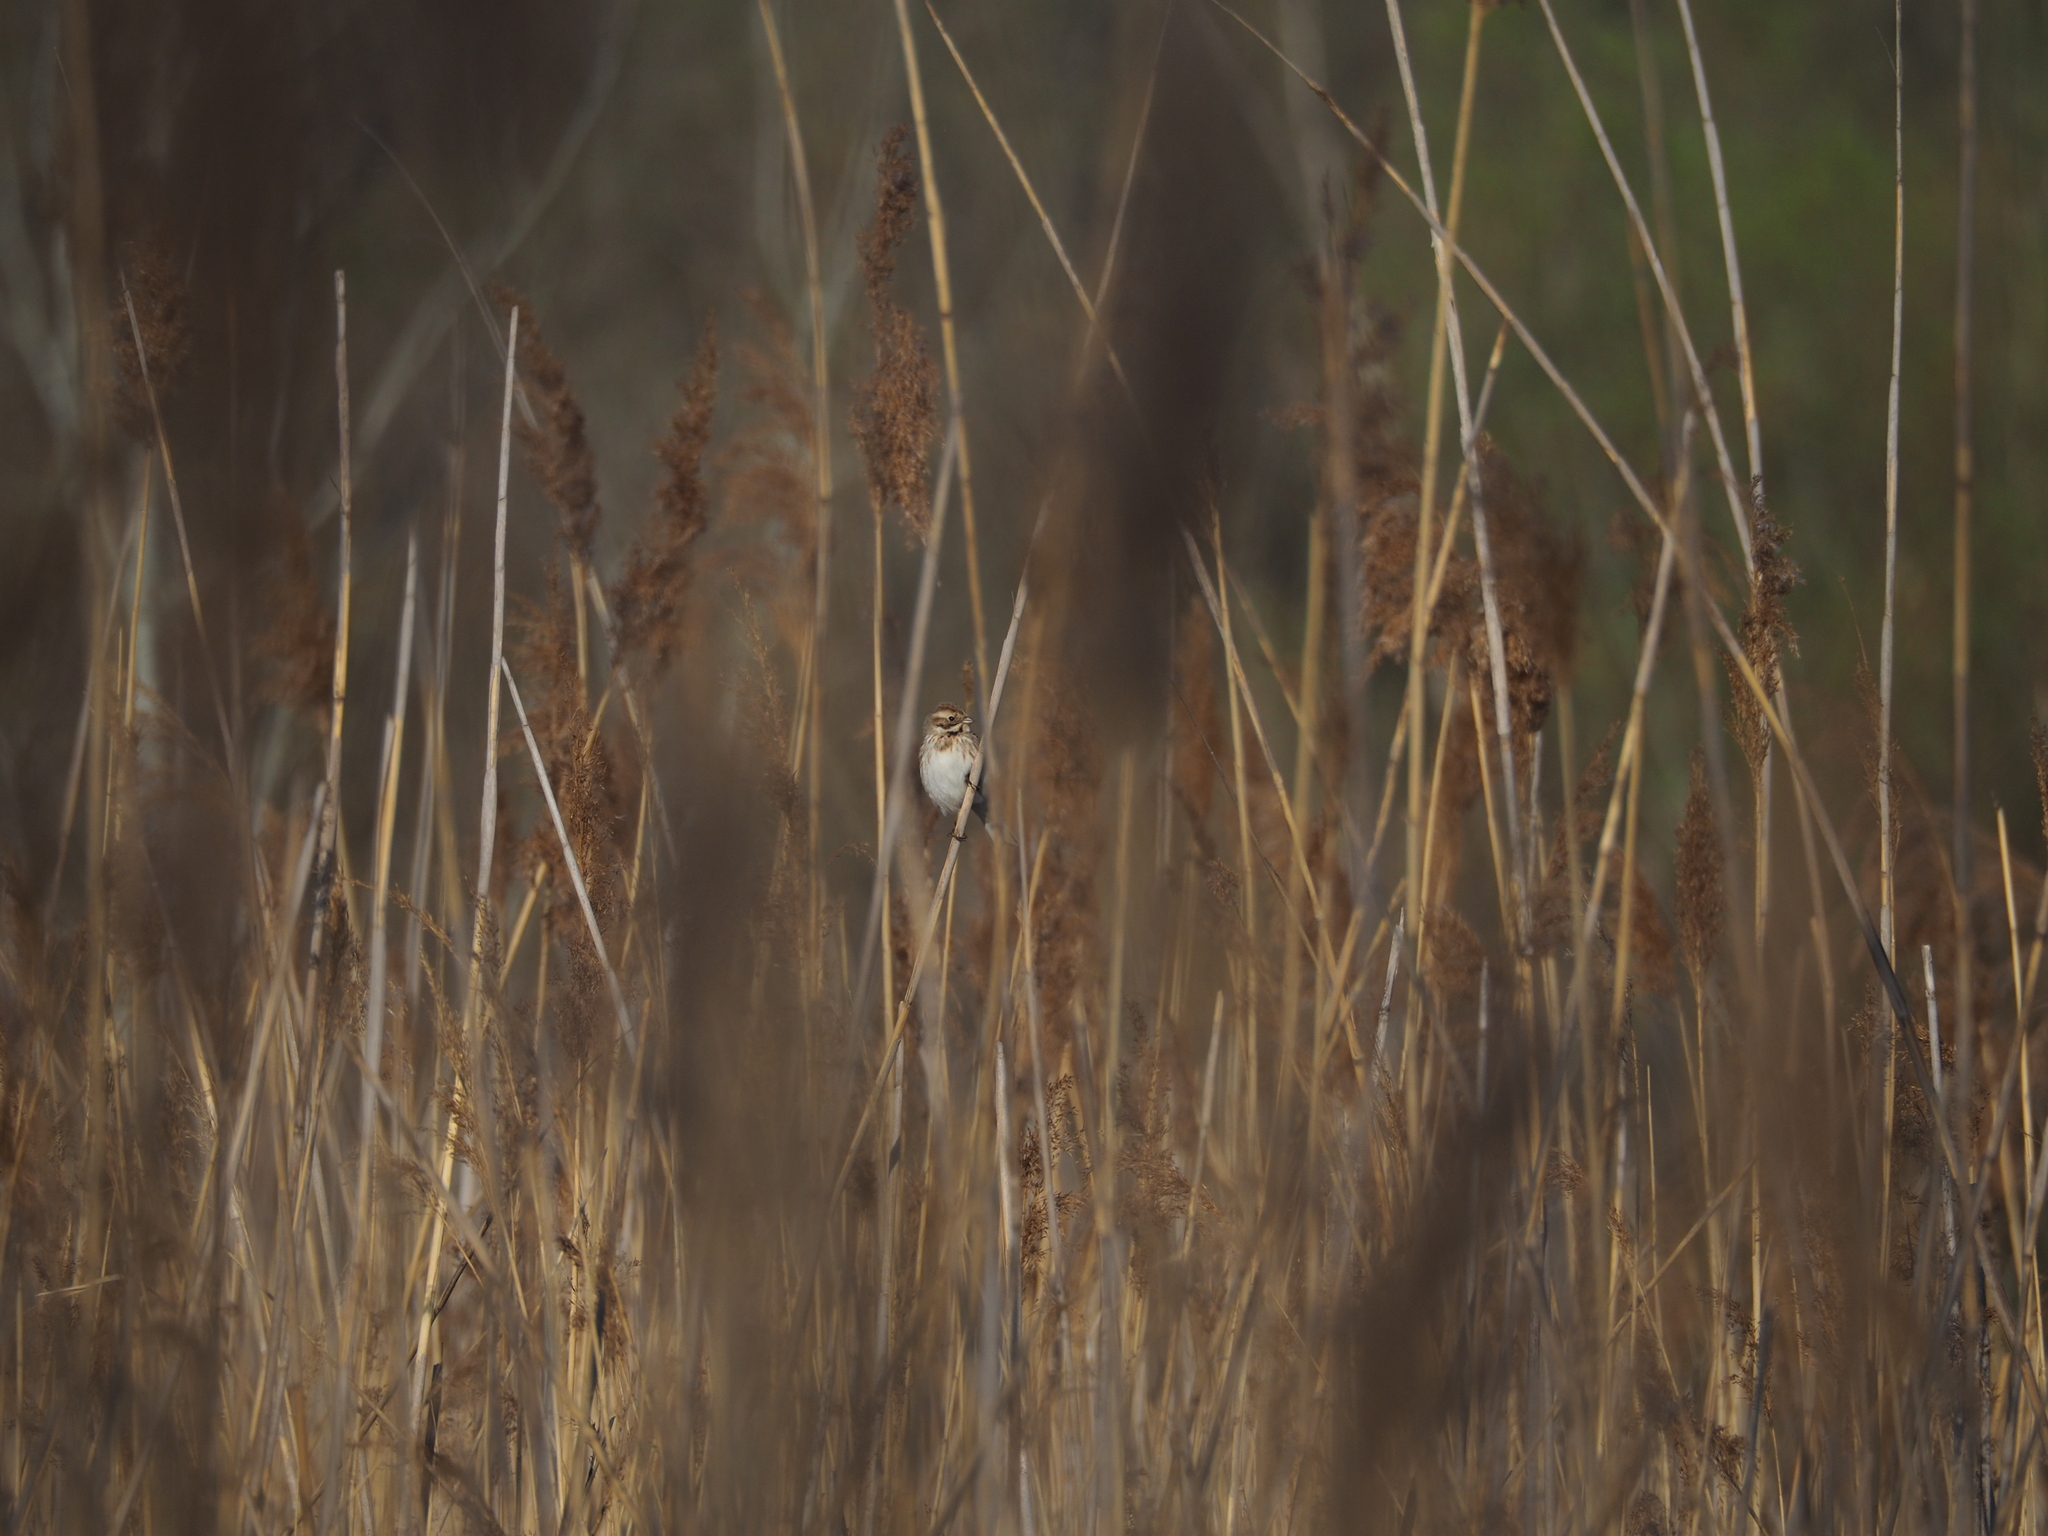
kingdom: Animalia
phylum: Chordata
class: Aves
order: Passeriformes
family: Emberizidae
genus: Emberiza
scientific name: Emberiza schoeniclus
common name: Reed bunting
